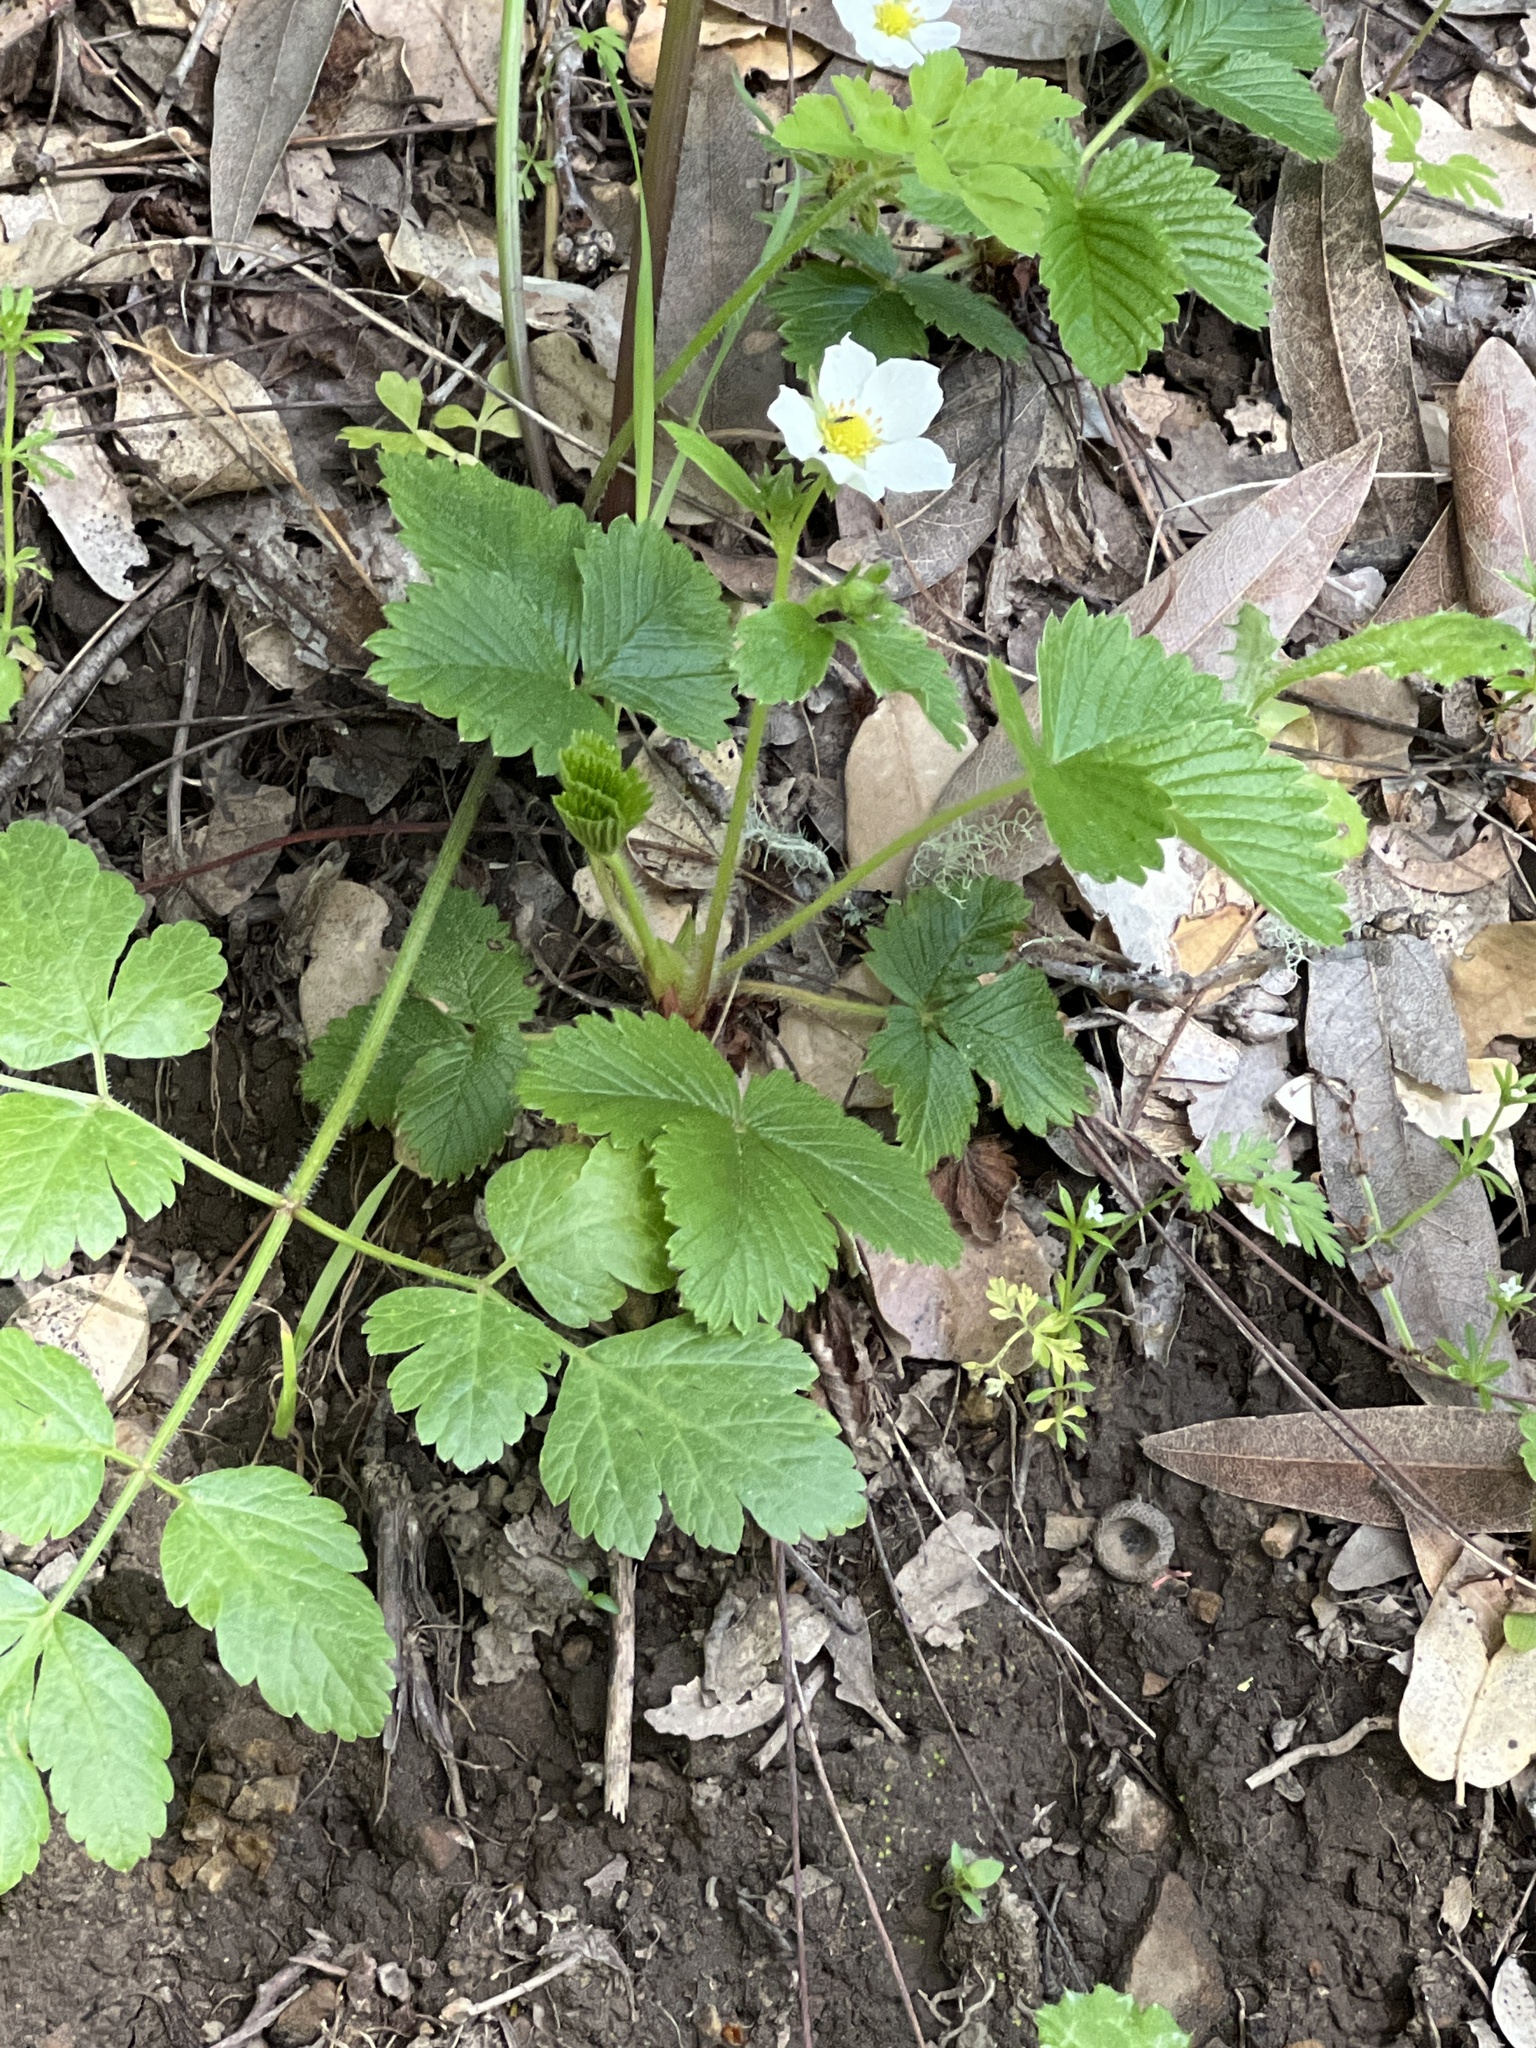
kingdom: Plantae
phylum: Tracheophyta
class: Magnoliopsida
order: Rosales
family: Rosaceae
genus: Fragaria
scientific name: Fragaria vesca
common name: Wild strawberry
